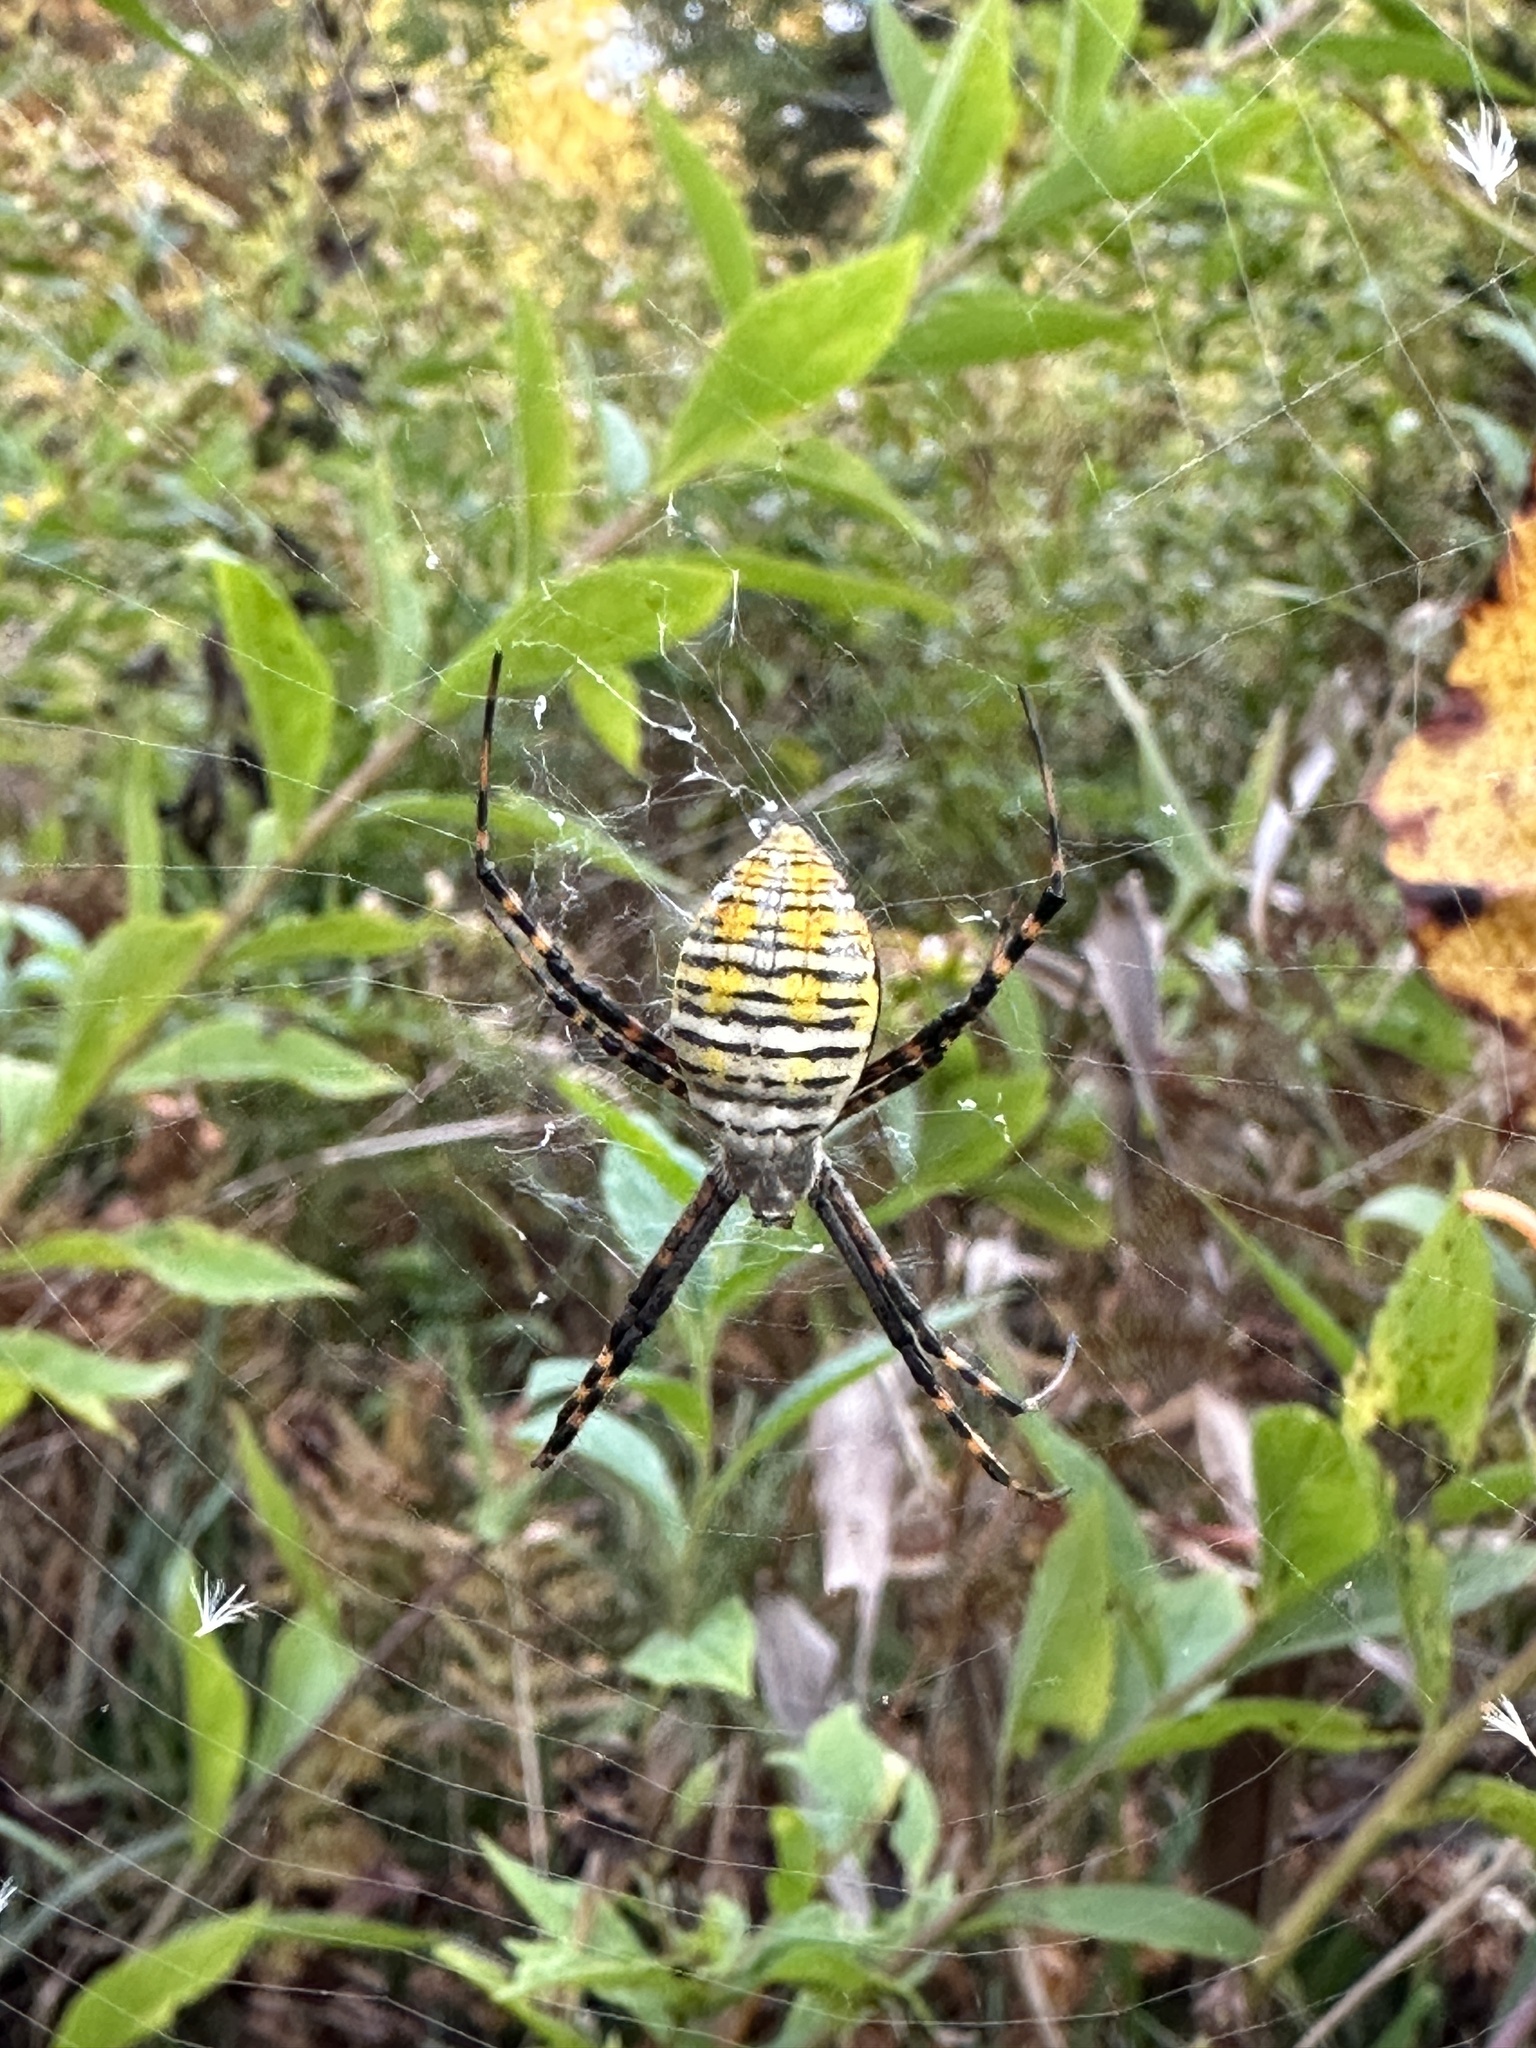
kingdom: Animalia
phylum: Arthropoda
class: Arachnida
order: Araneae
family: Araneidae
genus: Argiope
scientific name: Argiope trifasciata
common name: Banded garden spider
